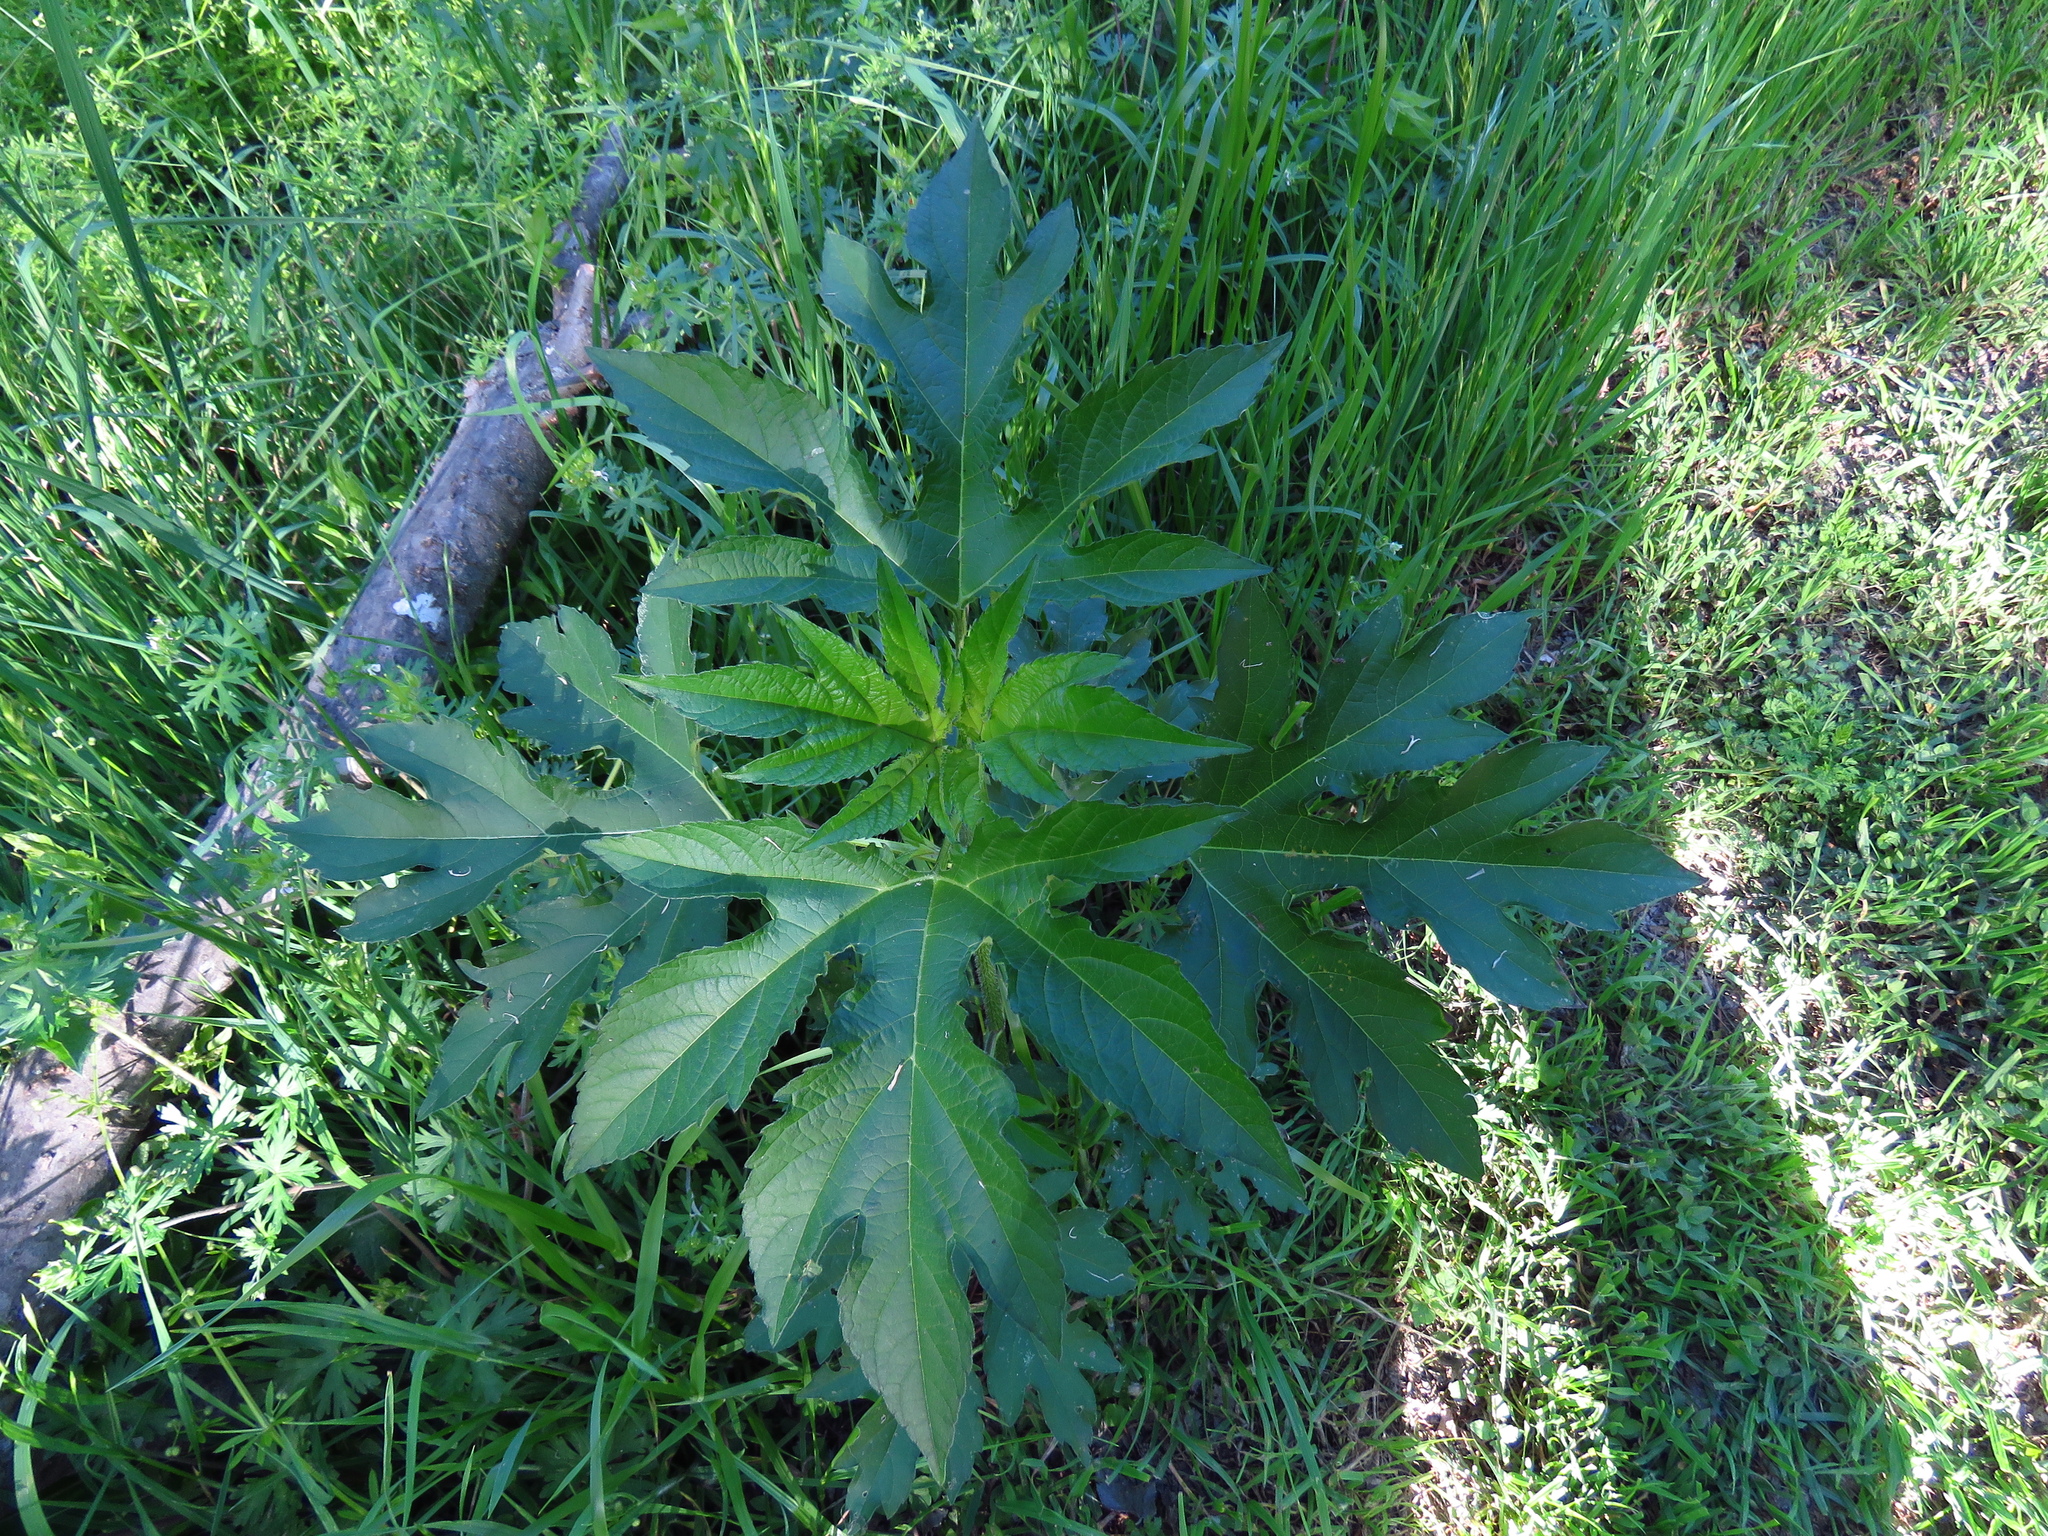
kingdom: Plantae
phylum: Tracheophyta
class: Magnoliopsida
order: Asterales
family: Asteraceae
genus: Ambrosia
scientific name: Ambrosia trifida
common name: Giant ragweed
